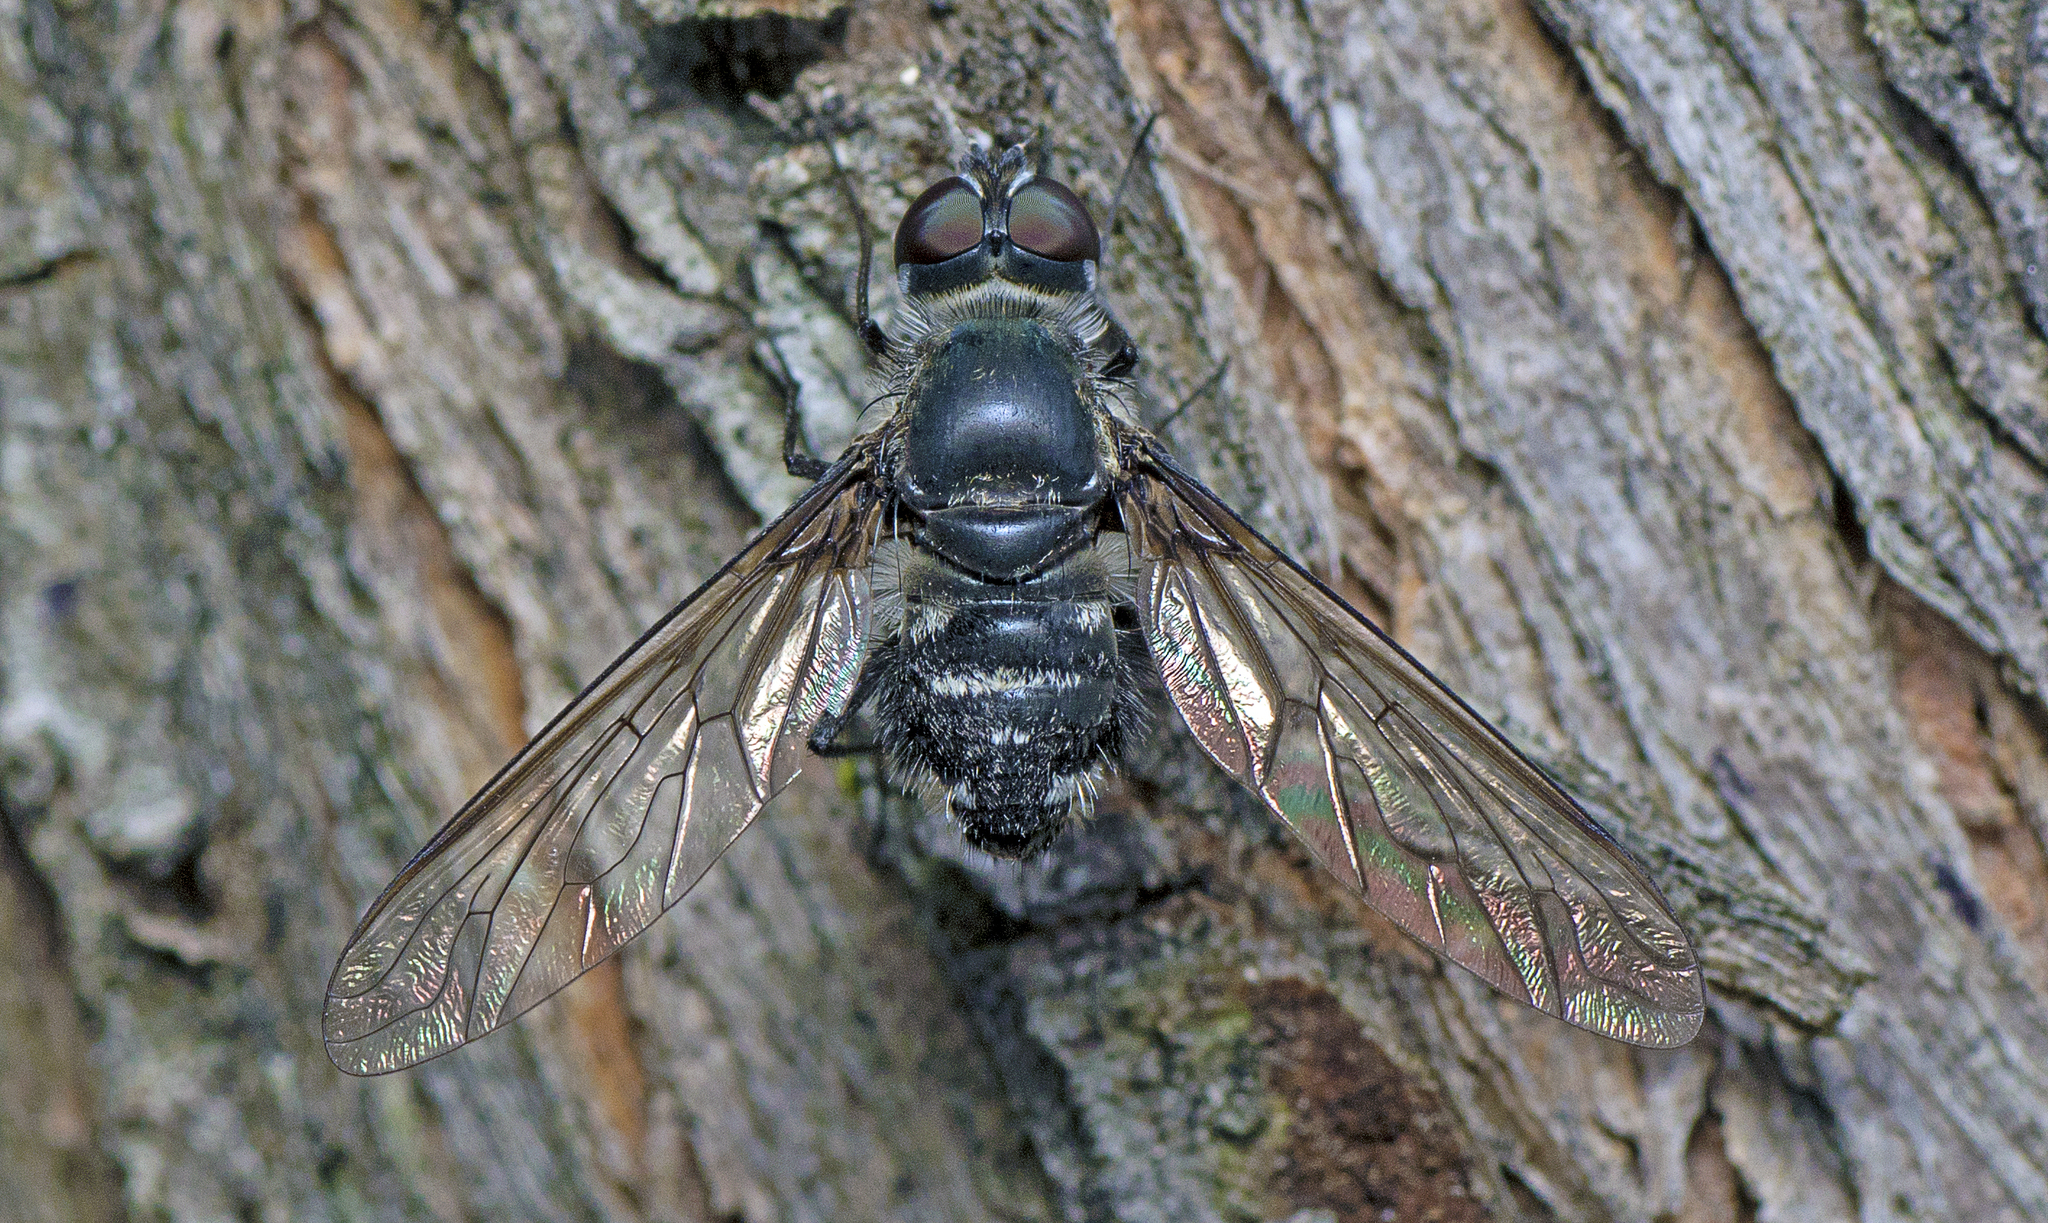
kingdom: Animalia
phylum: Arthropoda
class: Insecta
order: Diptera
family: Bombyliidae
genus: Thraxan
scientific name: Thraxan
